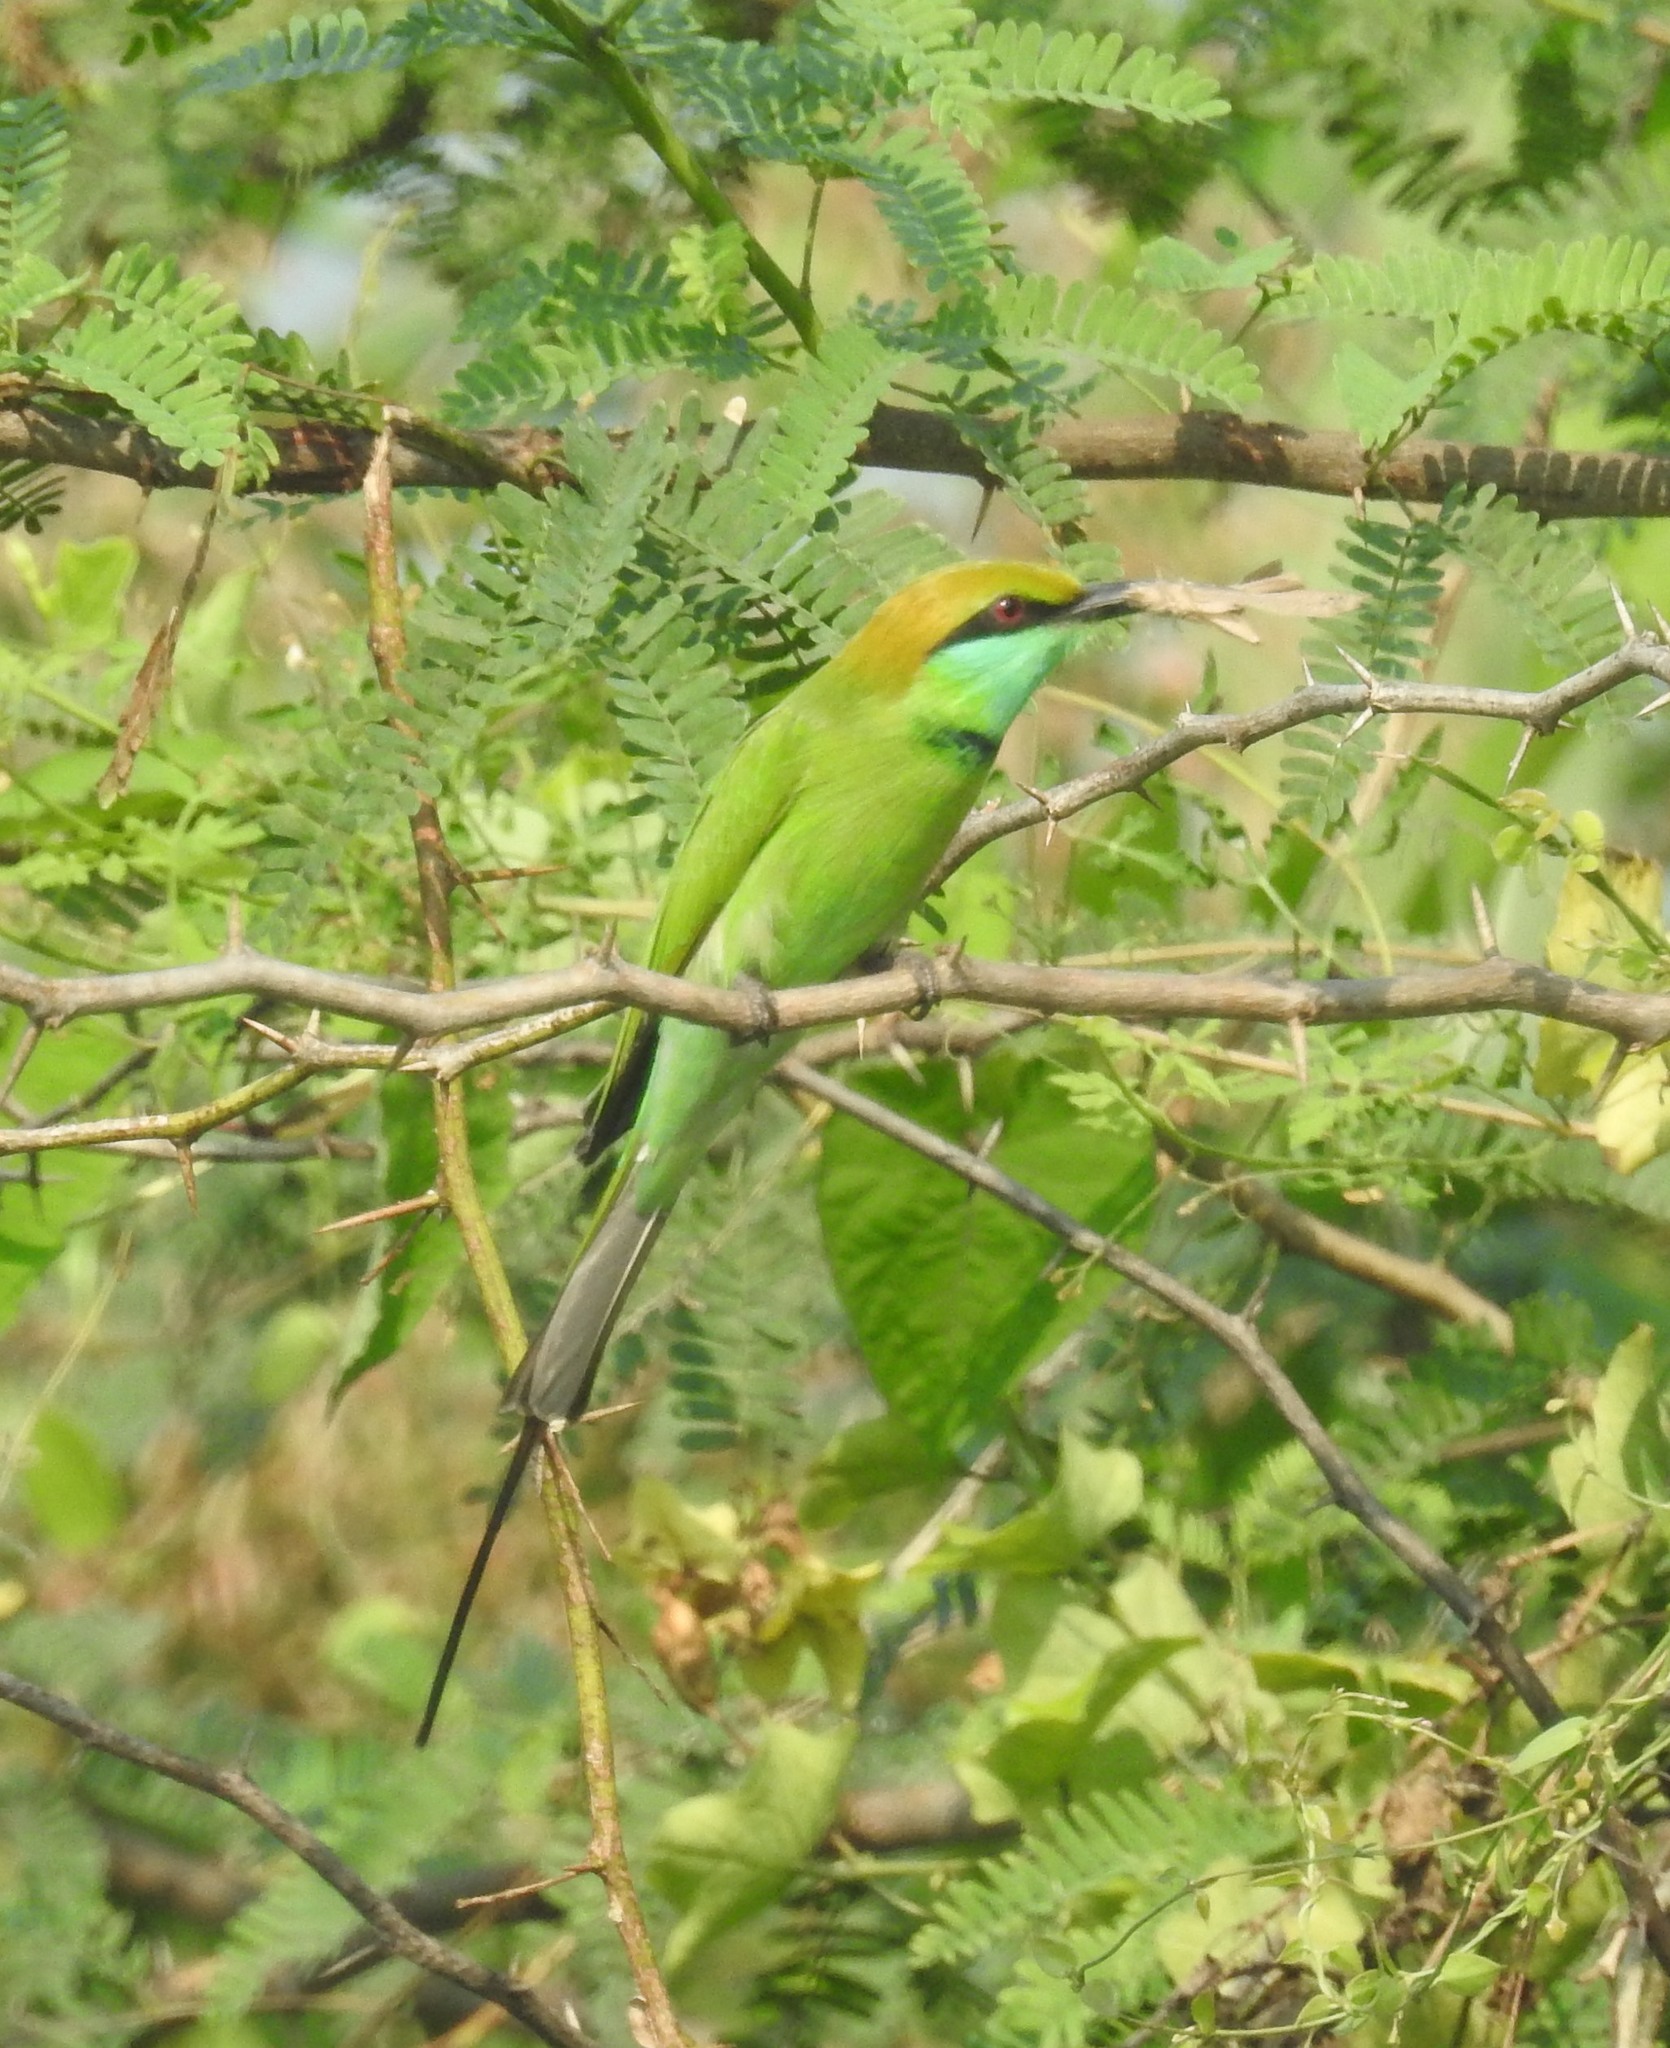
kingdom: Animalia
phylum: Chordata
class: Aves
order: Coraciiformes
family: Meropidae
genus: Merops
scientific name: Merops orientalis
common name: Green bee-eater
